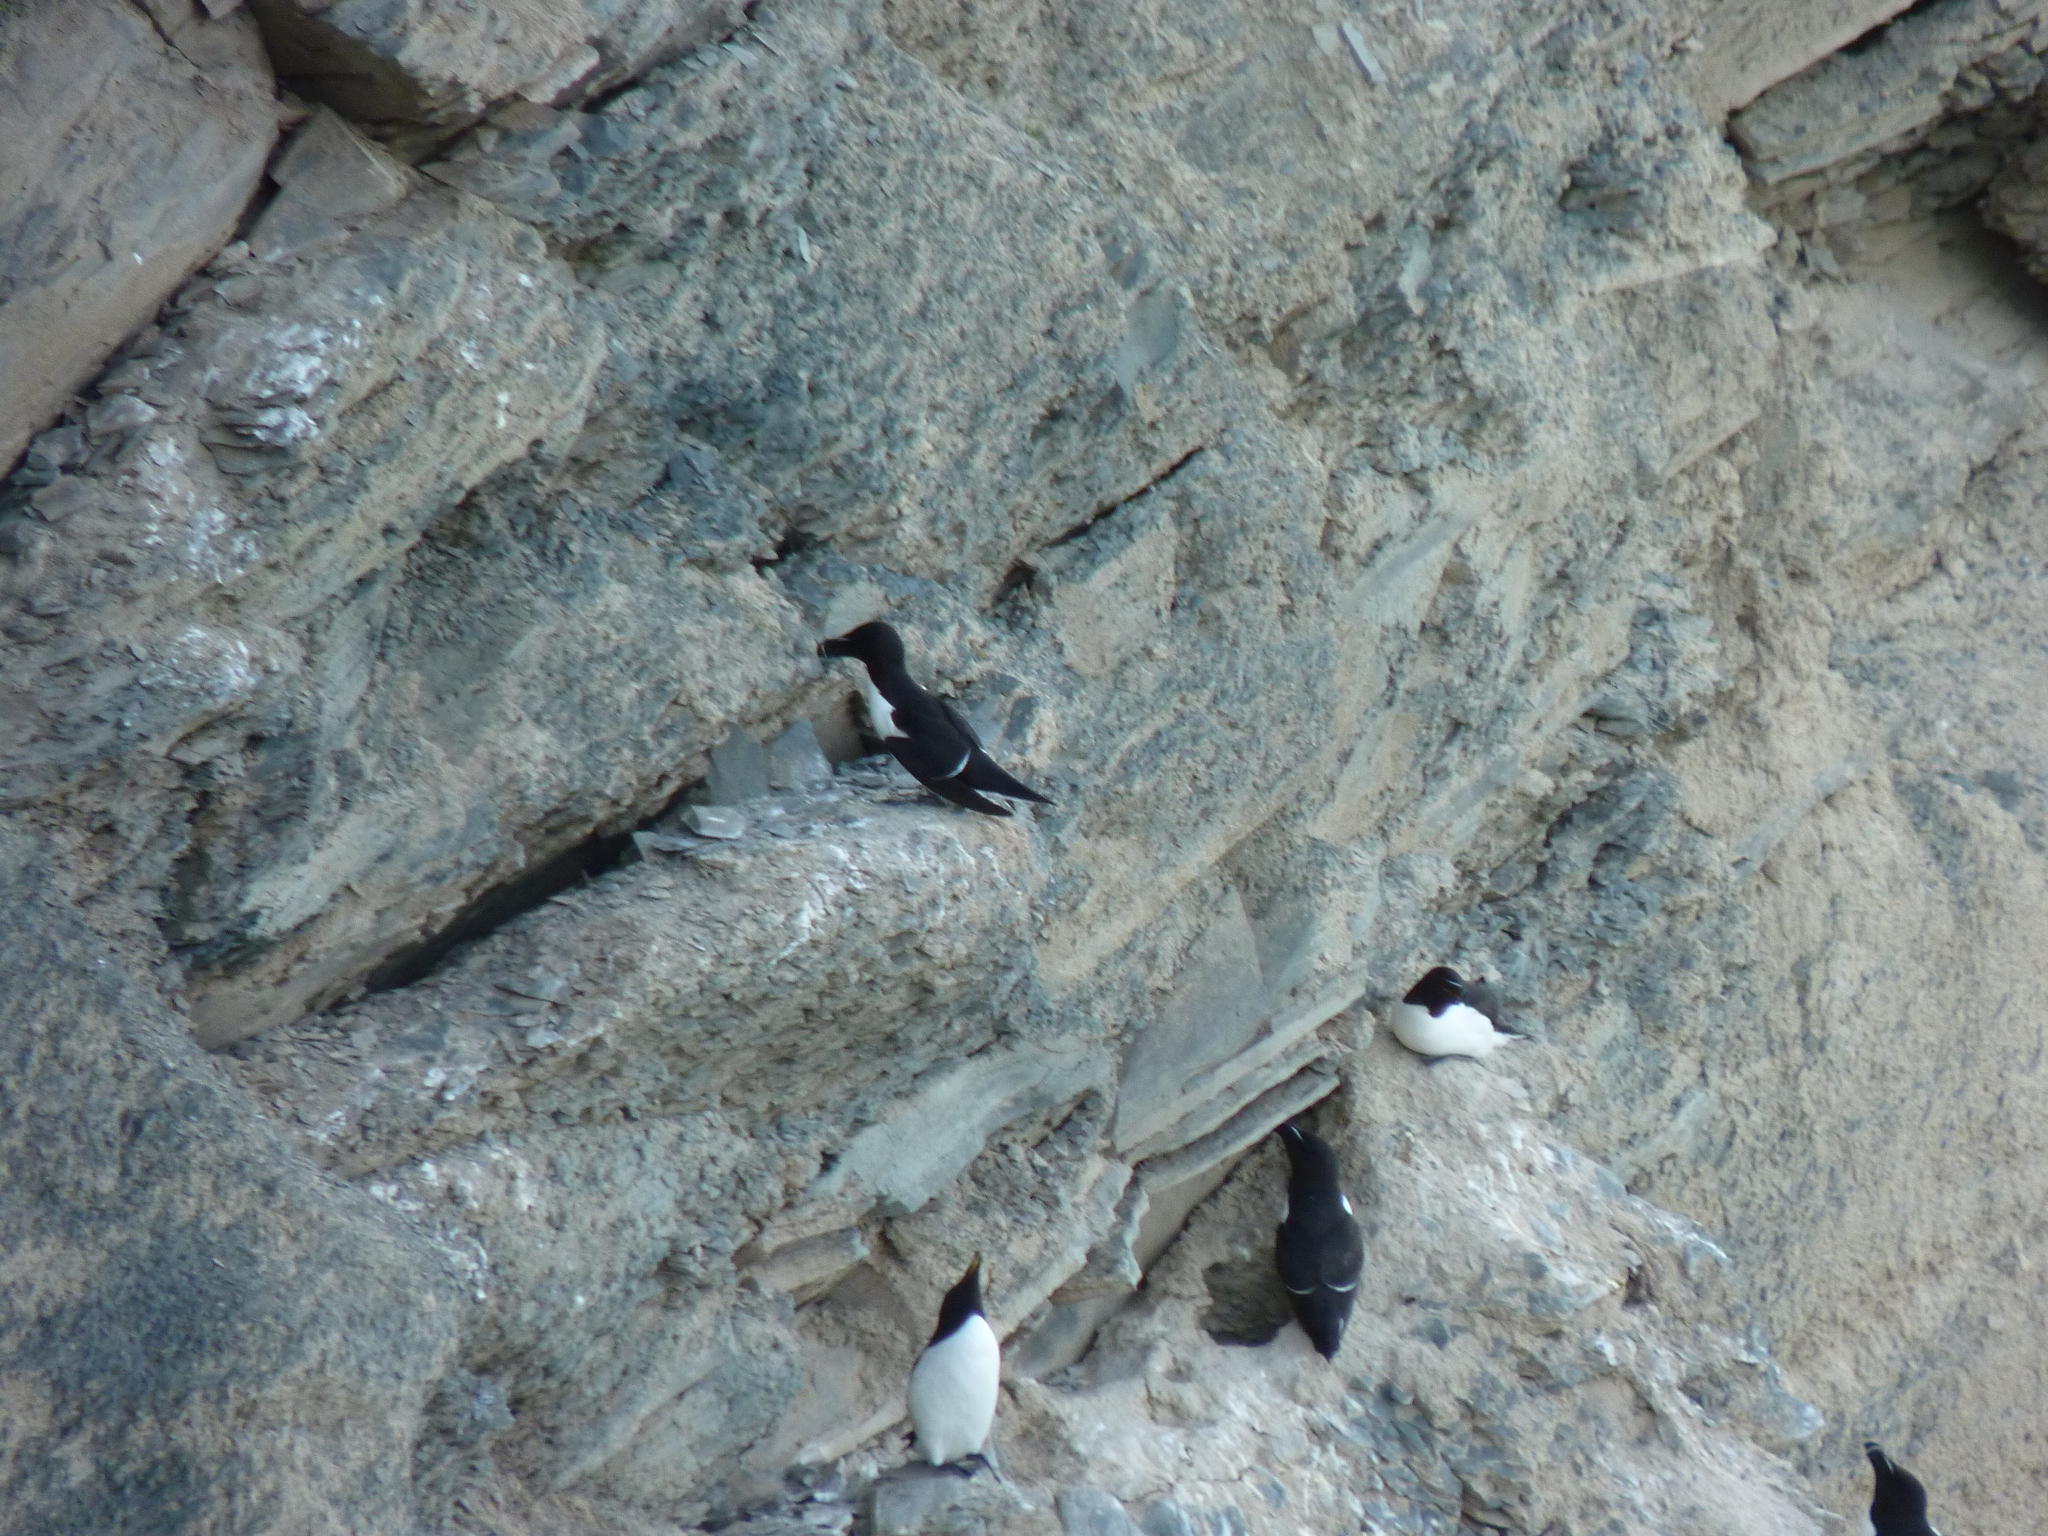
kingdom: Animalia
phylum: Chordata
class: Aves
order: Charadriiformes
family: Alcidae
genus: Alca
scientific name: Alca torda
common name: Razorbill
